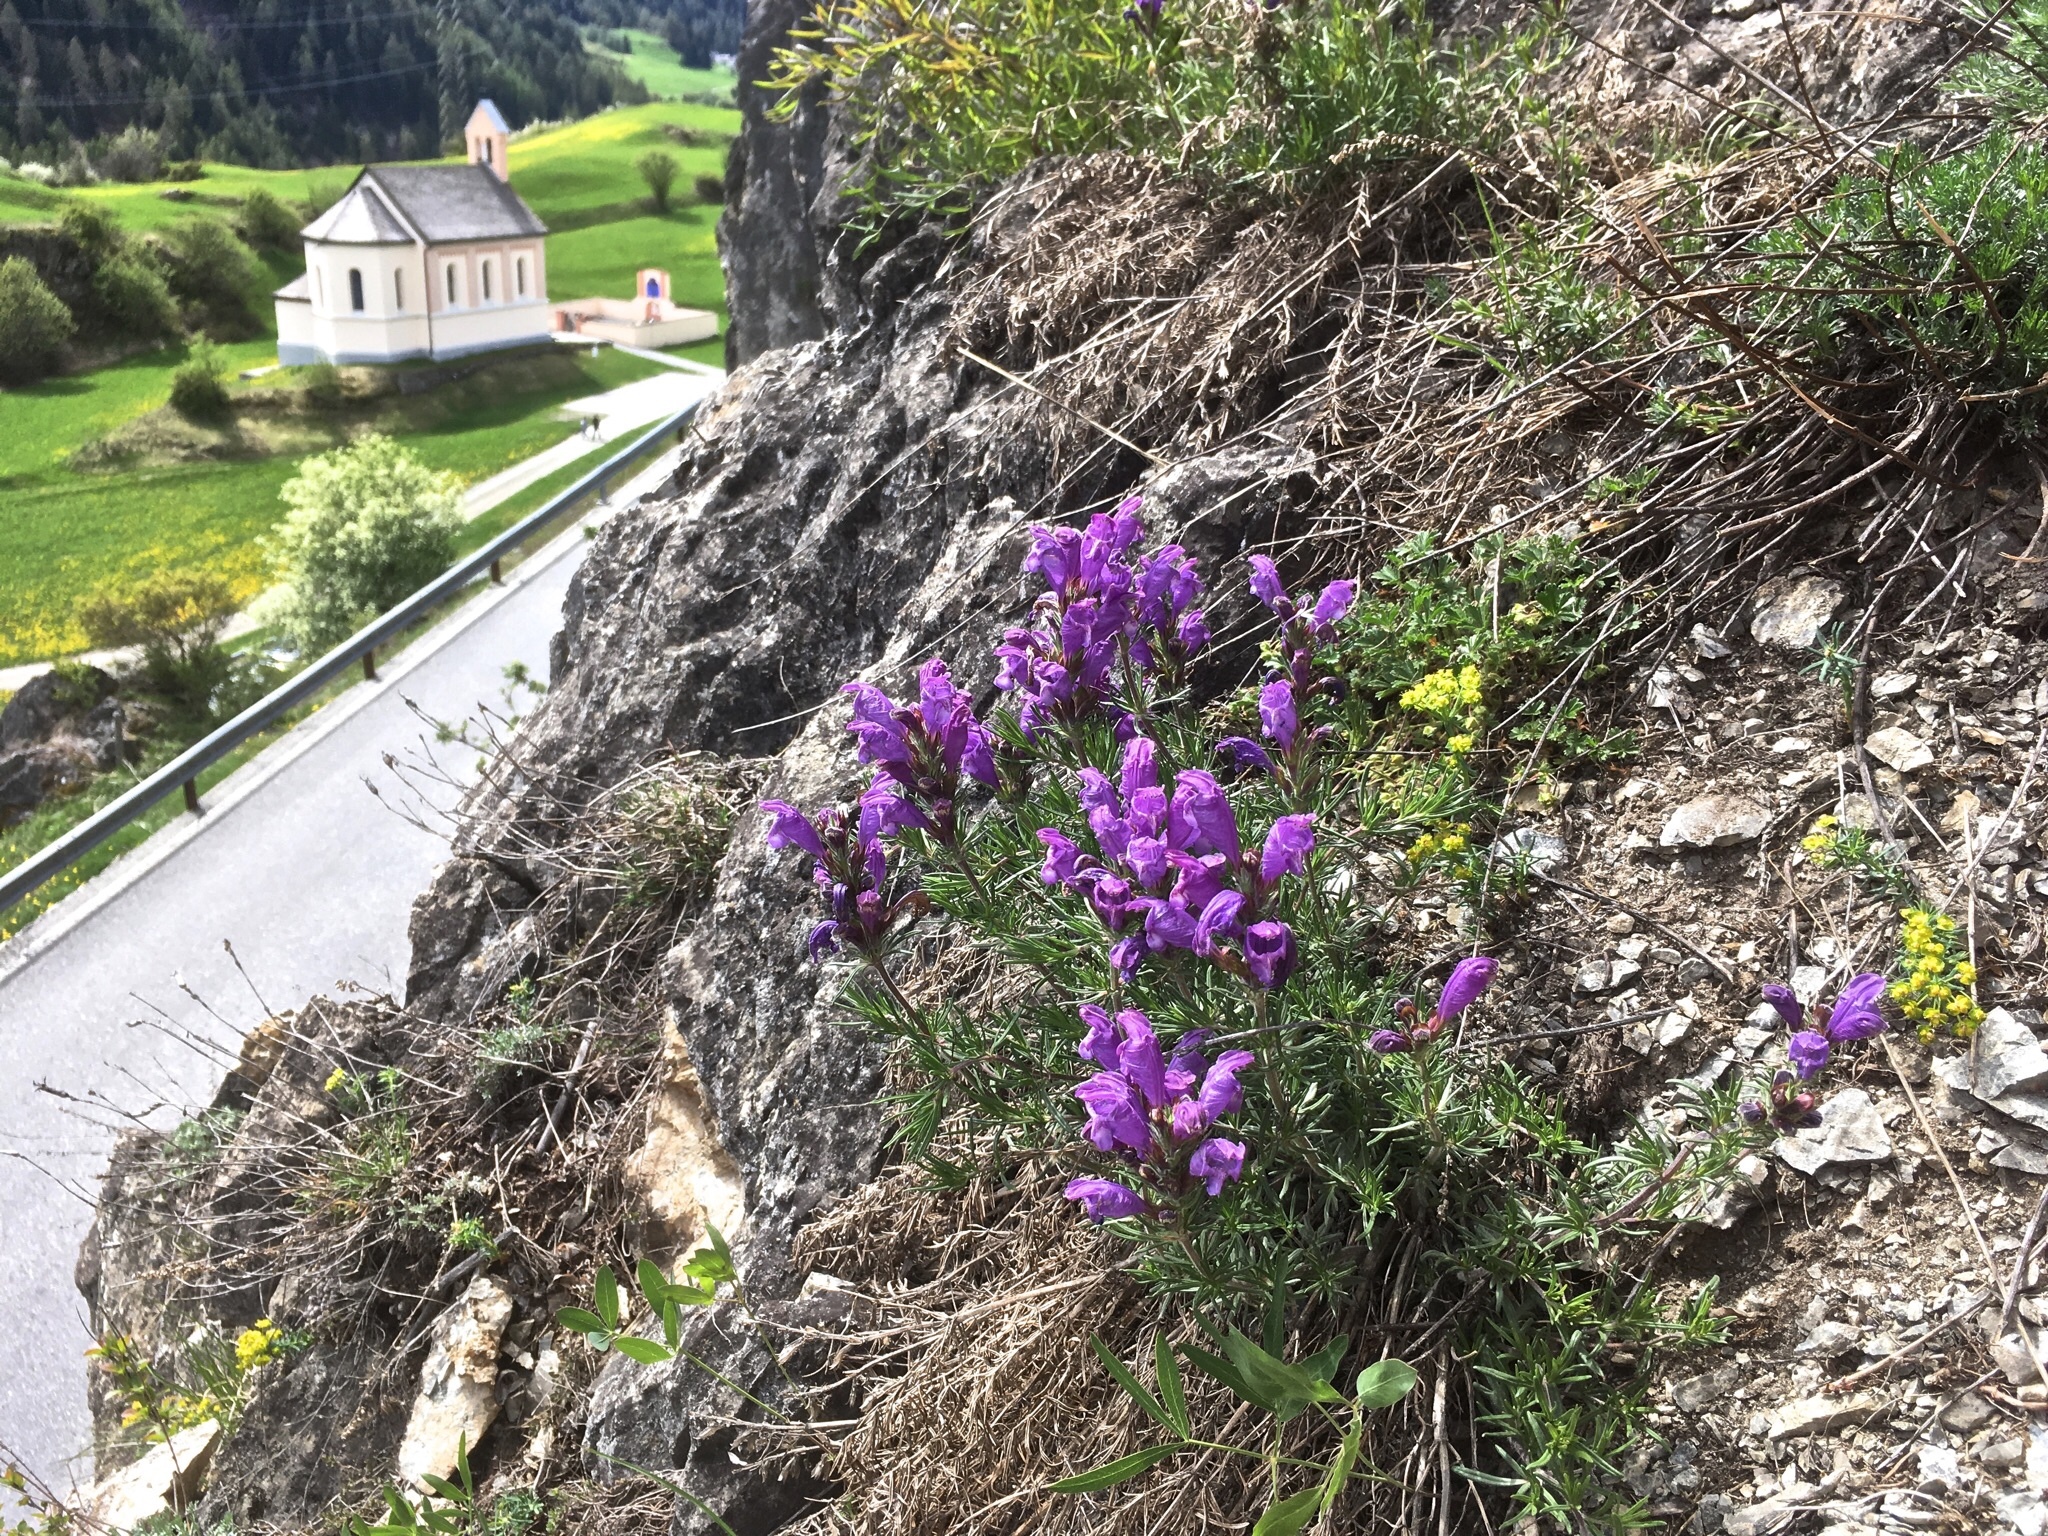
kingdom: Plantae
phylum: Tracheophyta
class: Magnoliopsida
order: Lamiales
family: Lamiaceae
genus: Dracocephalum
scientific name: Dracocephalum austriacum
